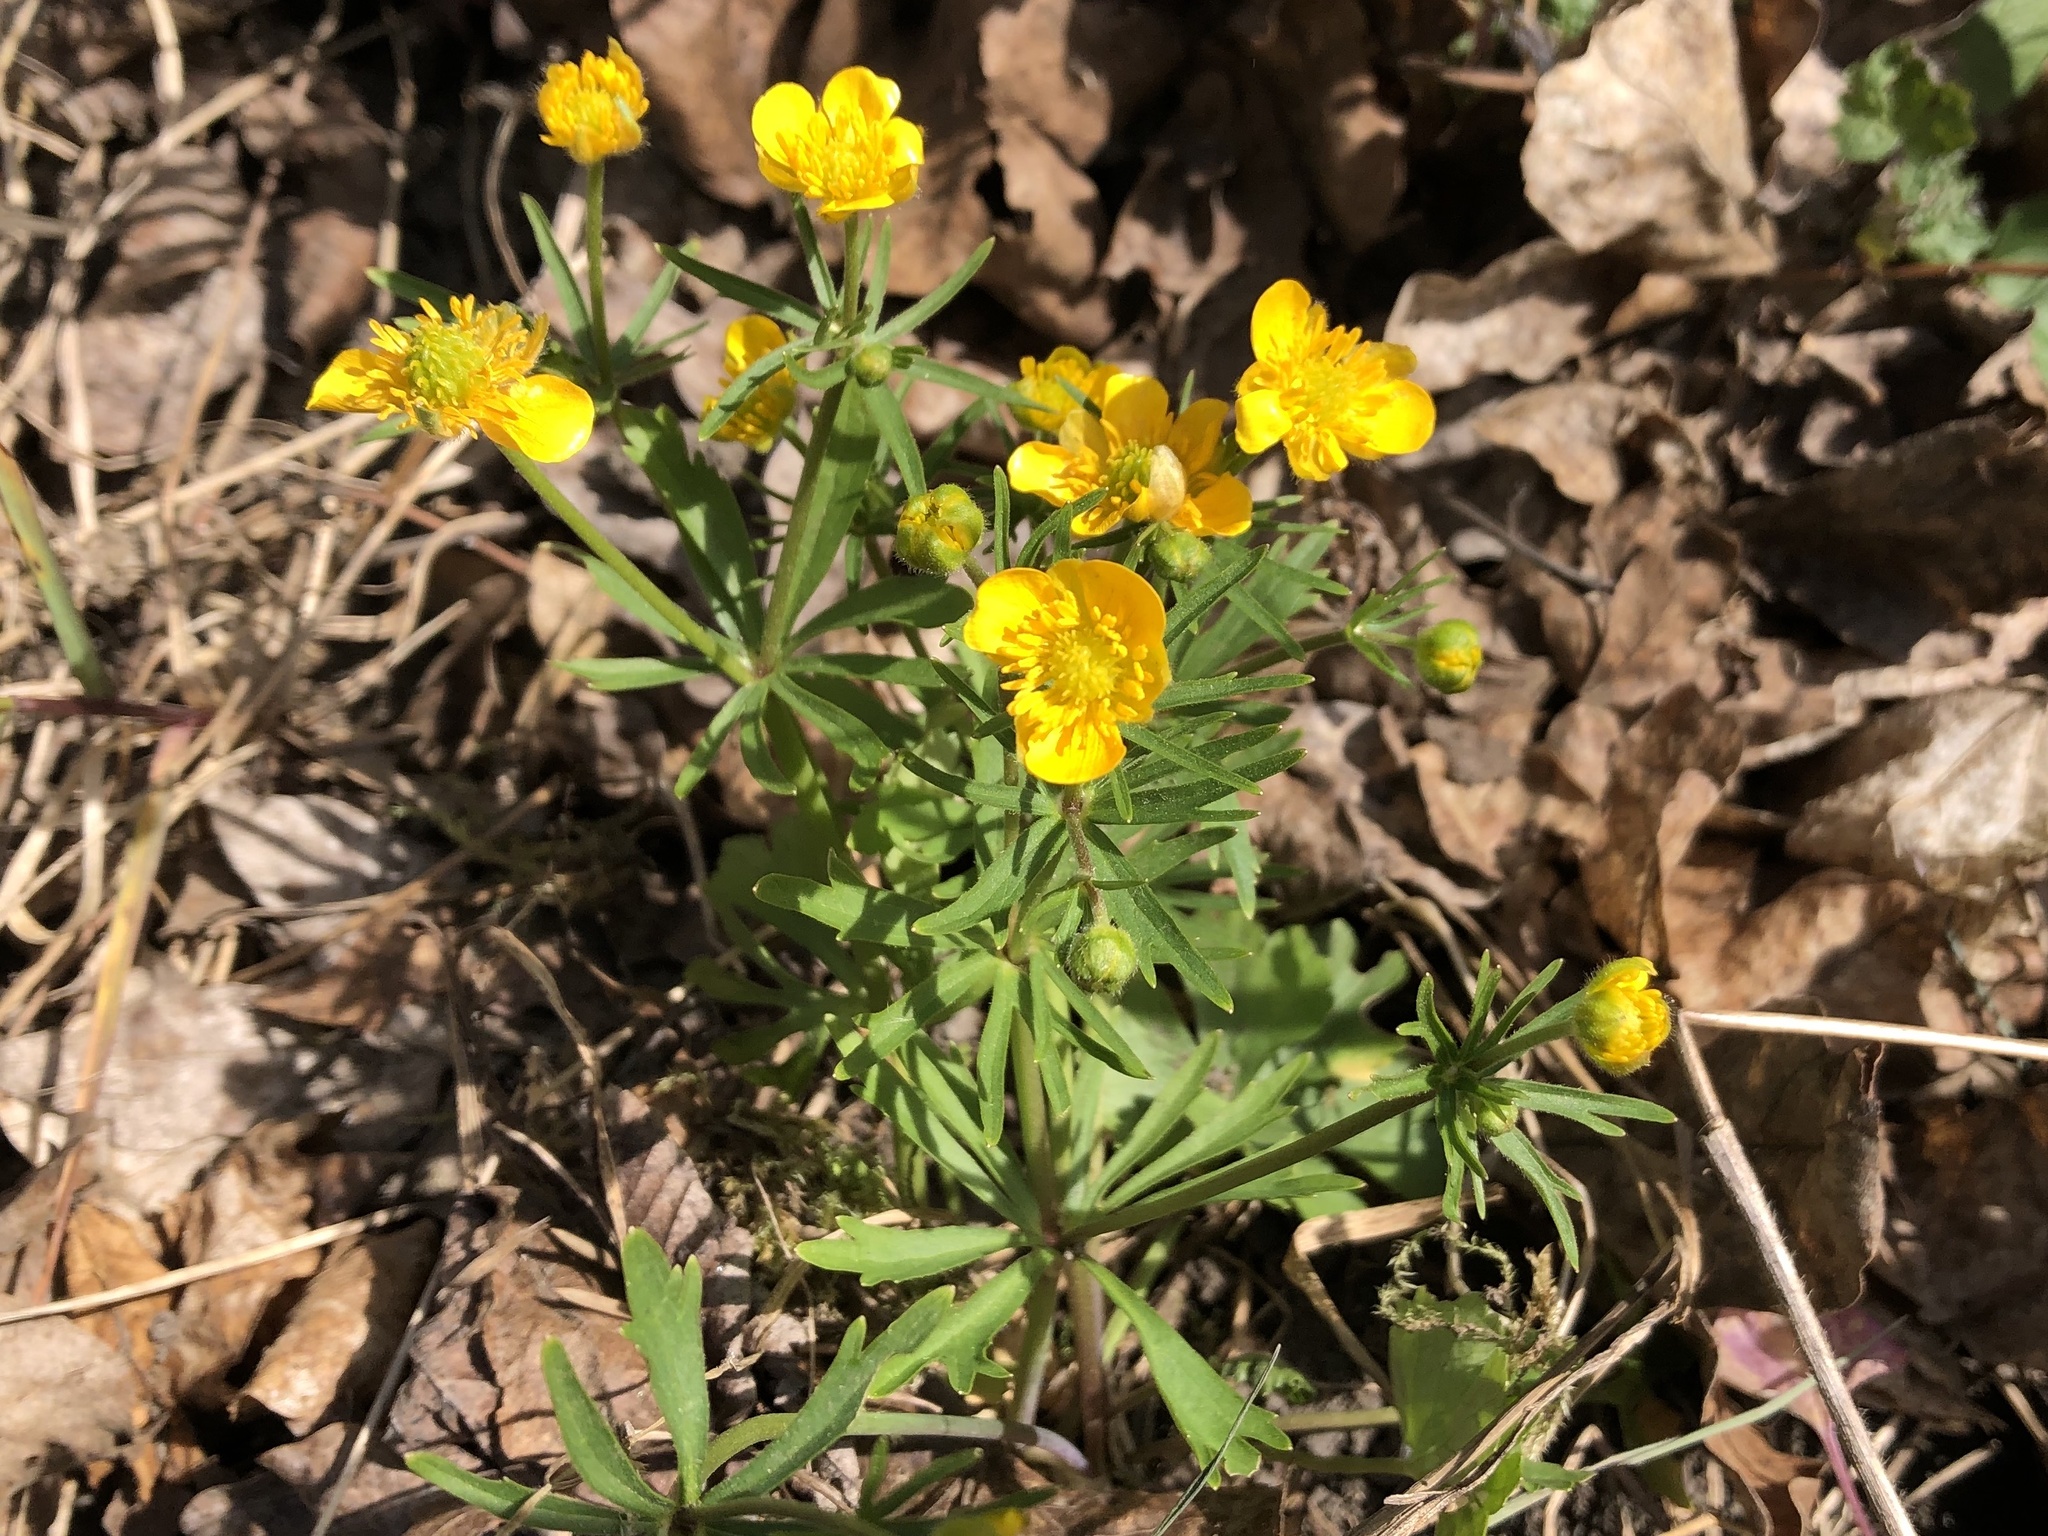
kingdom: Plantae
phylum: Tracheophyta
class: Magnoliopsida
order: Ranunculales
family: Ranunculaceae
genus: Ranunculus
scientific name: Ranunculus auricomus
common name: Goldilocks buttercup
